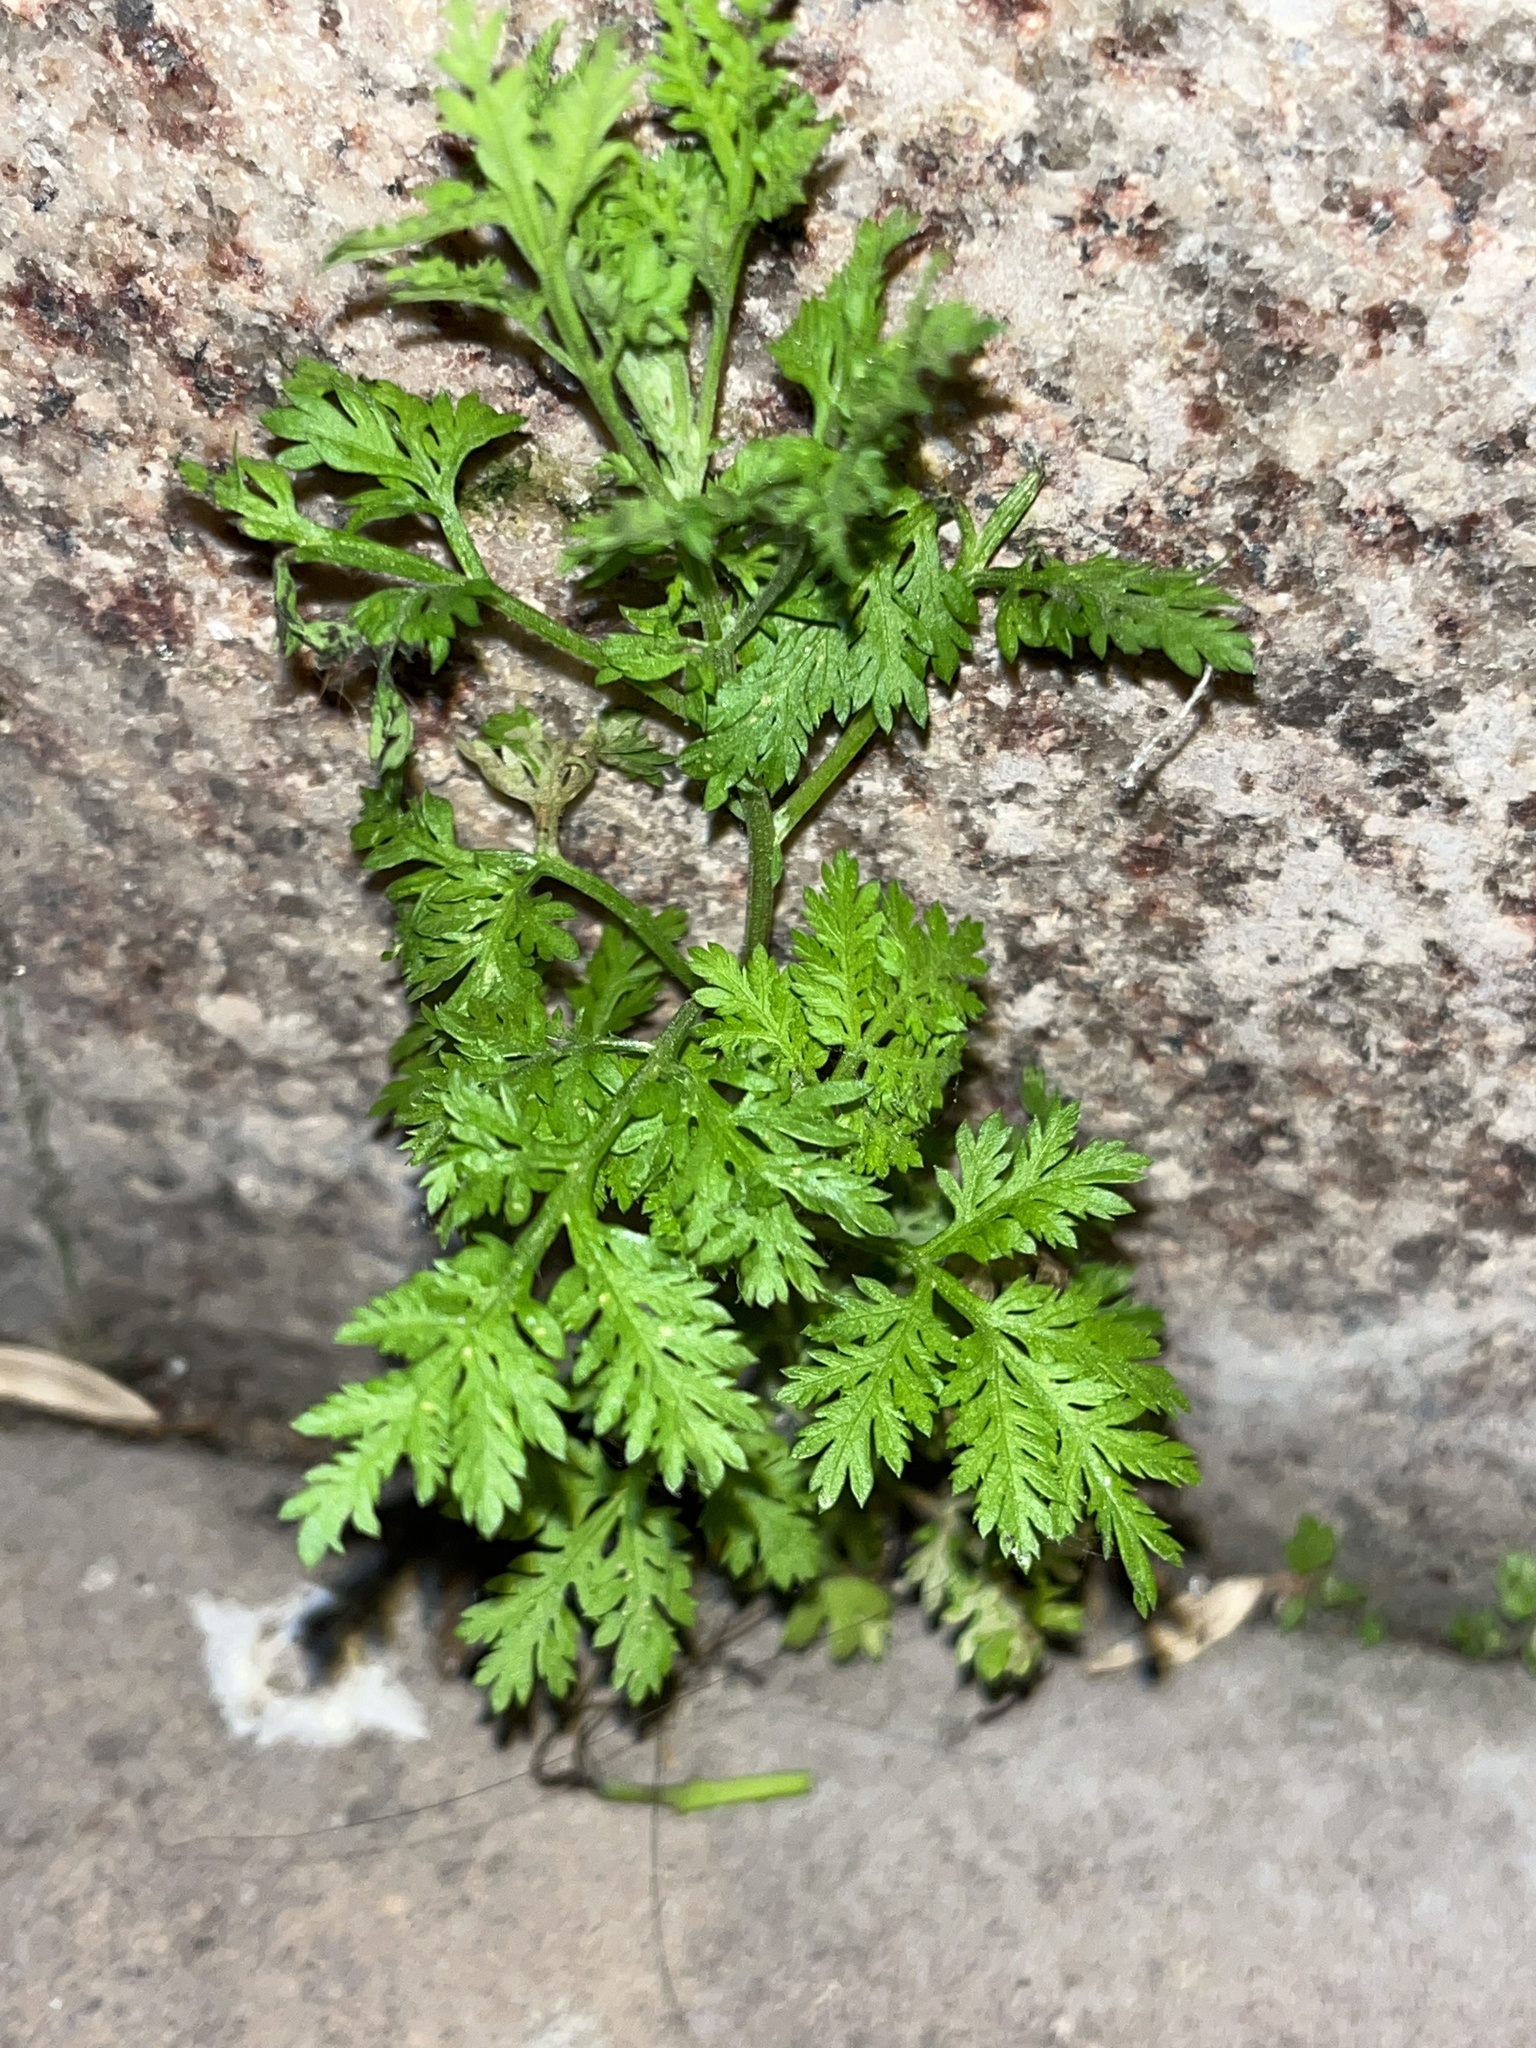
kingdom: Plantae
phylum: Tracheophyta
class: Magnoliopsida
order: Asterales
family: Asteraceae
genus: Artemisia
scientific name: Artemisia annua
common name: Sweet sagewort
